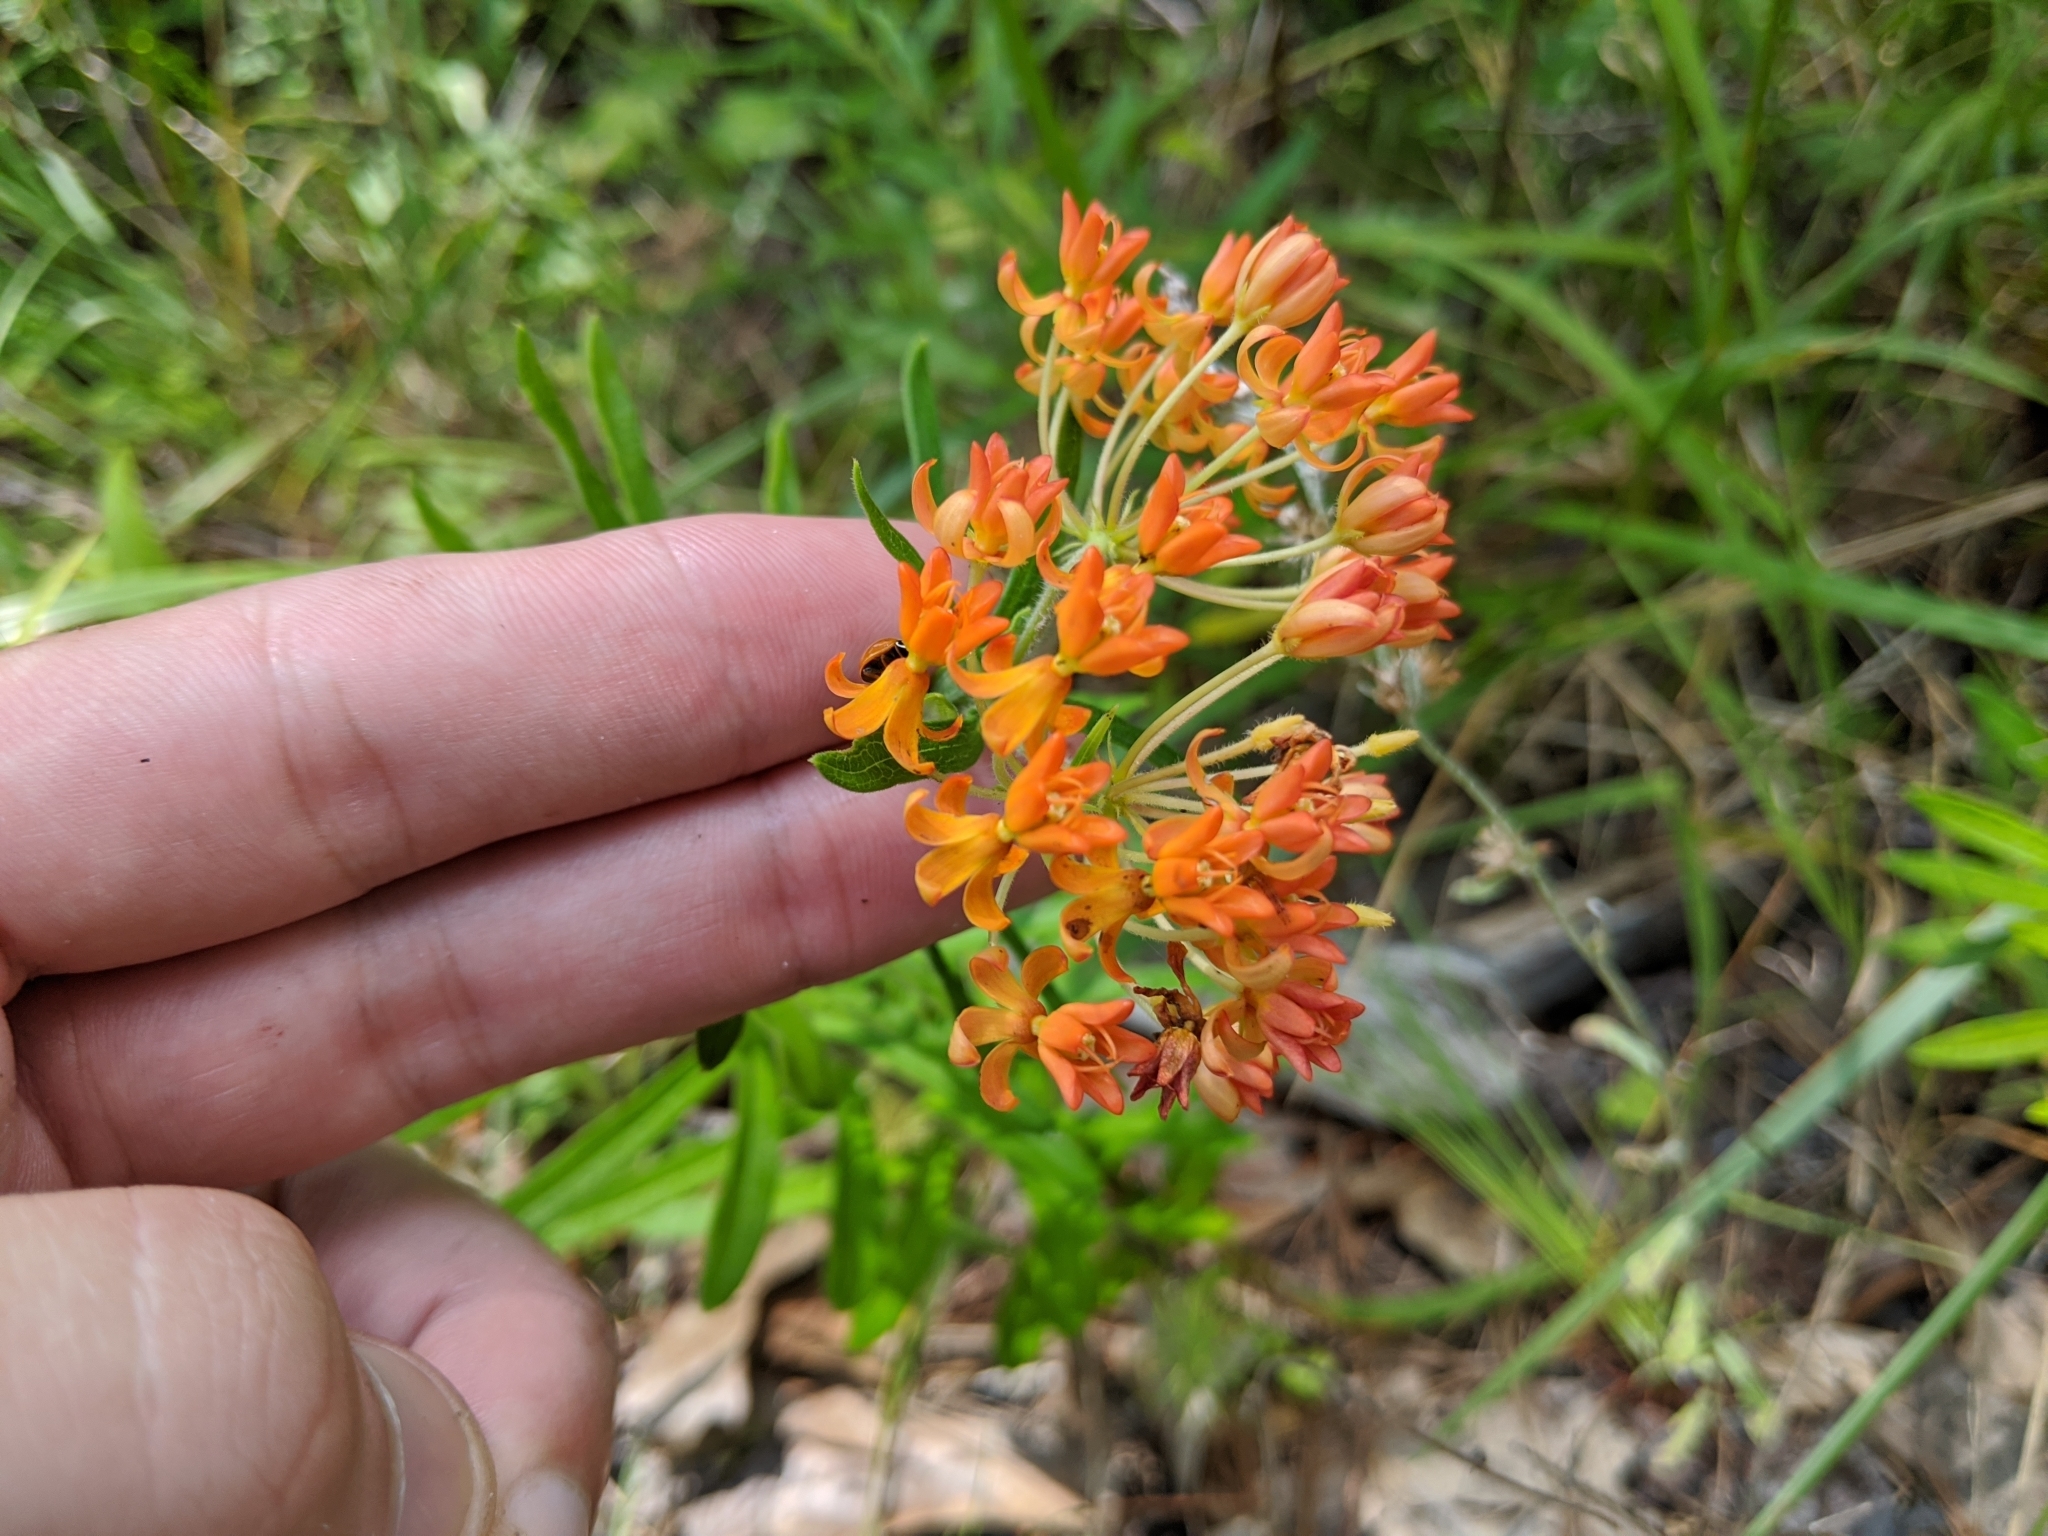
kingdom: Plantae
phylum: Tracheophyta
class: Magnoliopsida
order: Gentianales
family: Apocynaceae
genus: Asclepias
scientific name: Asclepias tuberosa
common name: Butterfly milkweed
